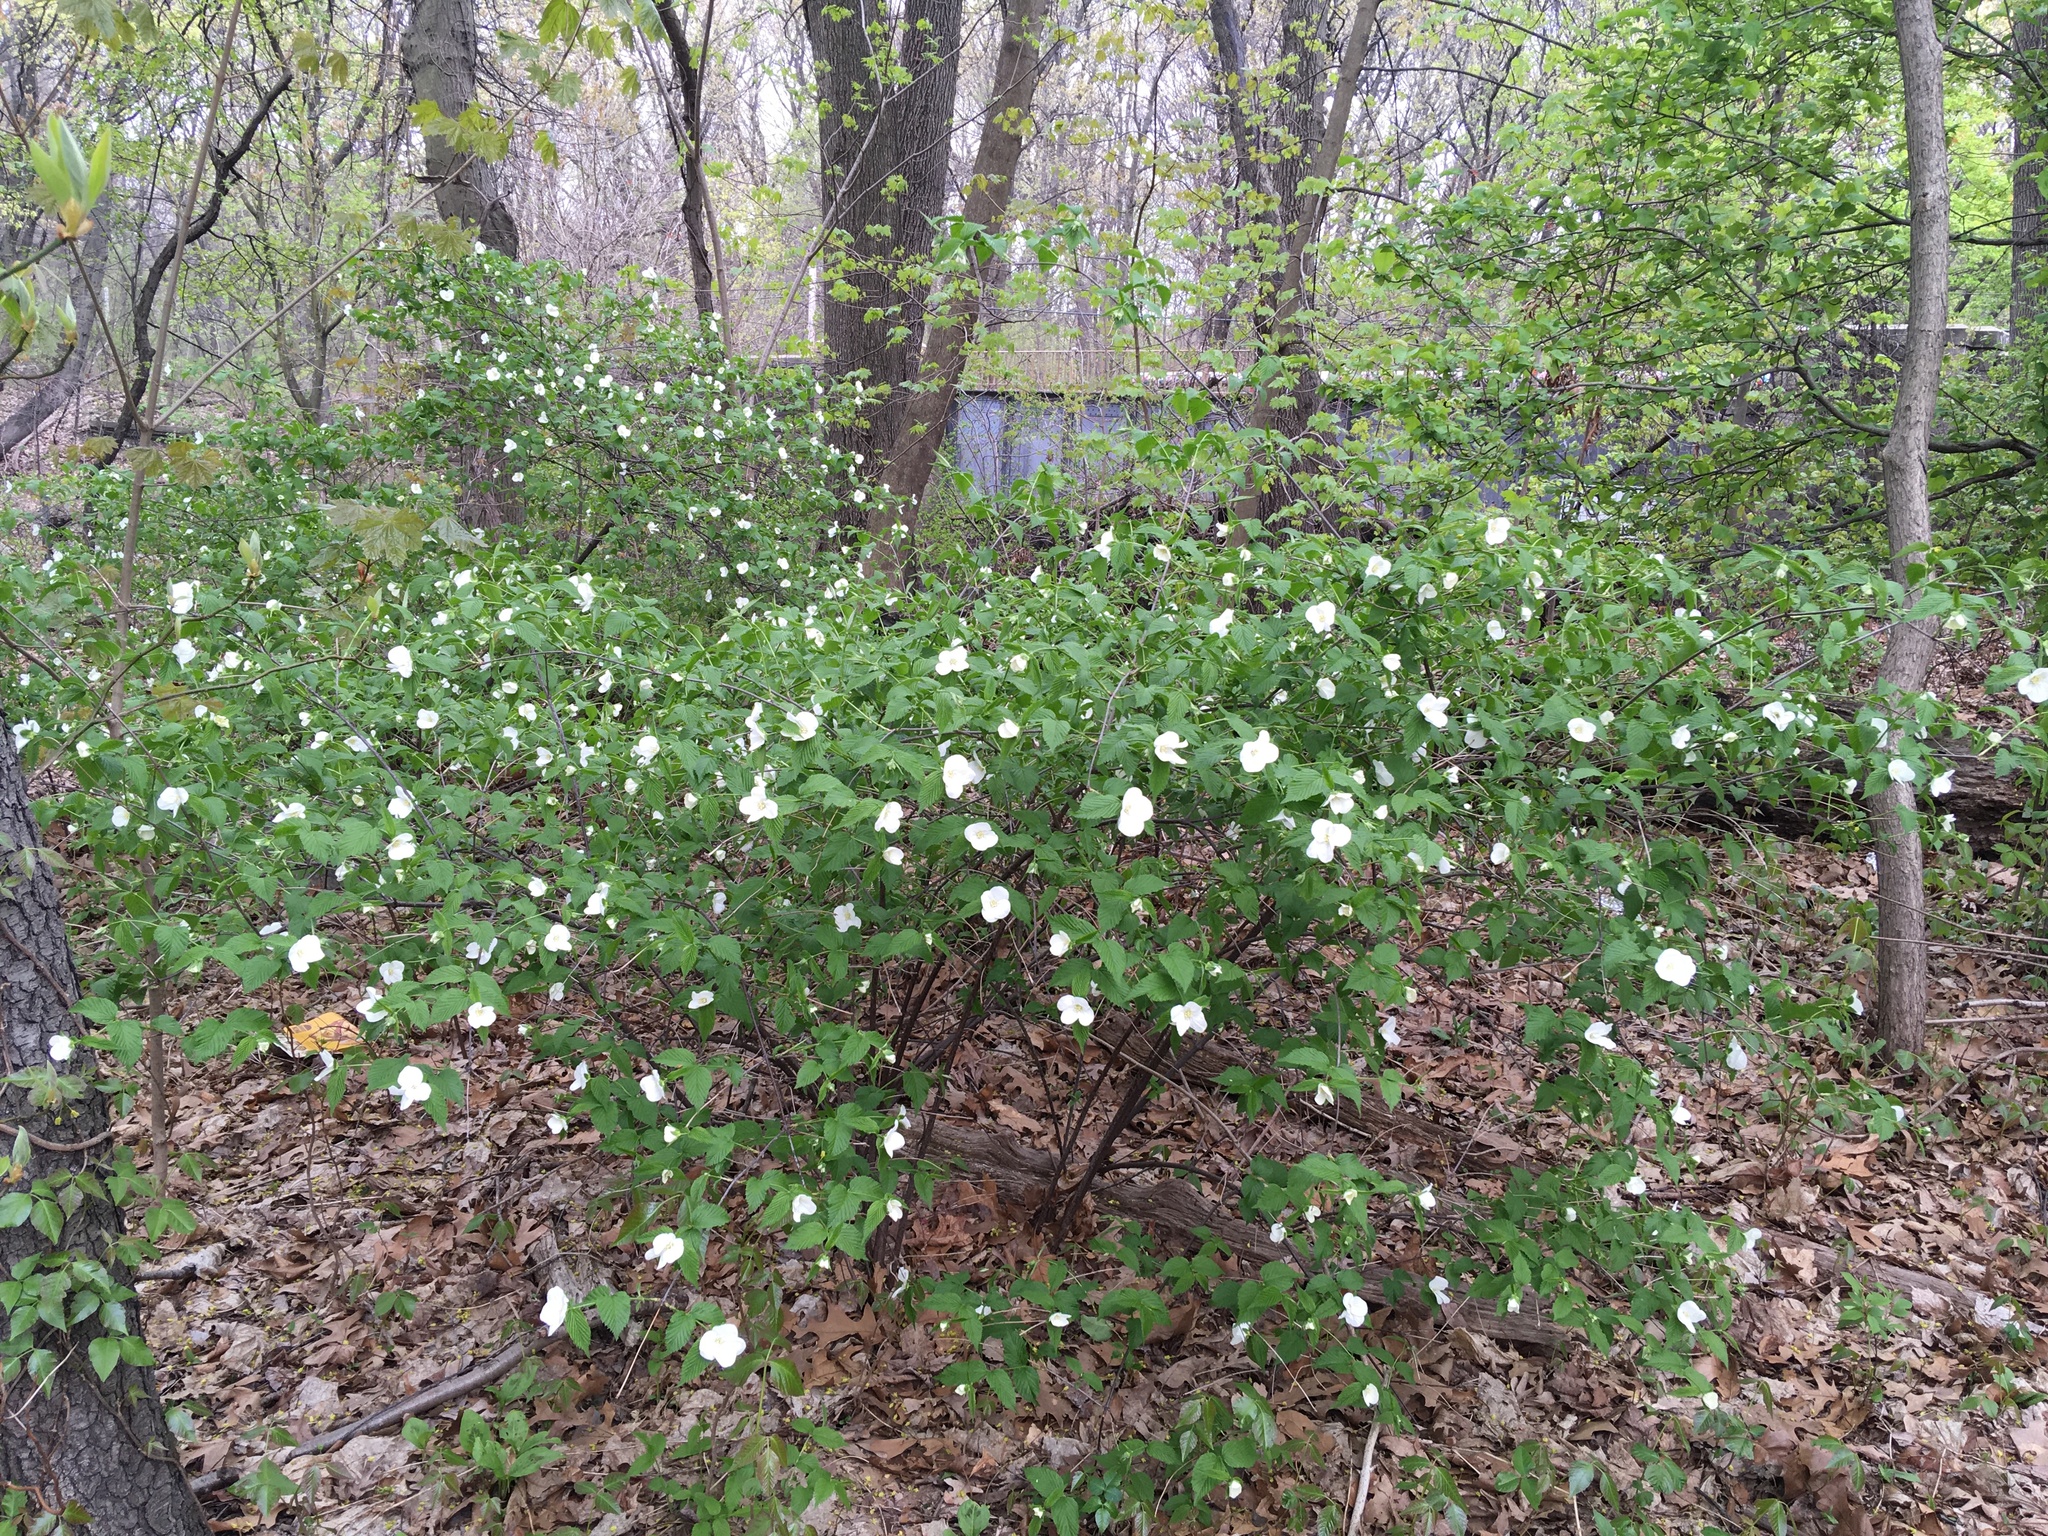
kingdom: Plantae
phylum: Tracheophyta
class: Magnoliopsida
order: Rosales
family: Rosaceae
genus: Rhodotypos
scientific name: Rhodotypos scandens
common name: Jetbead
